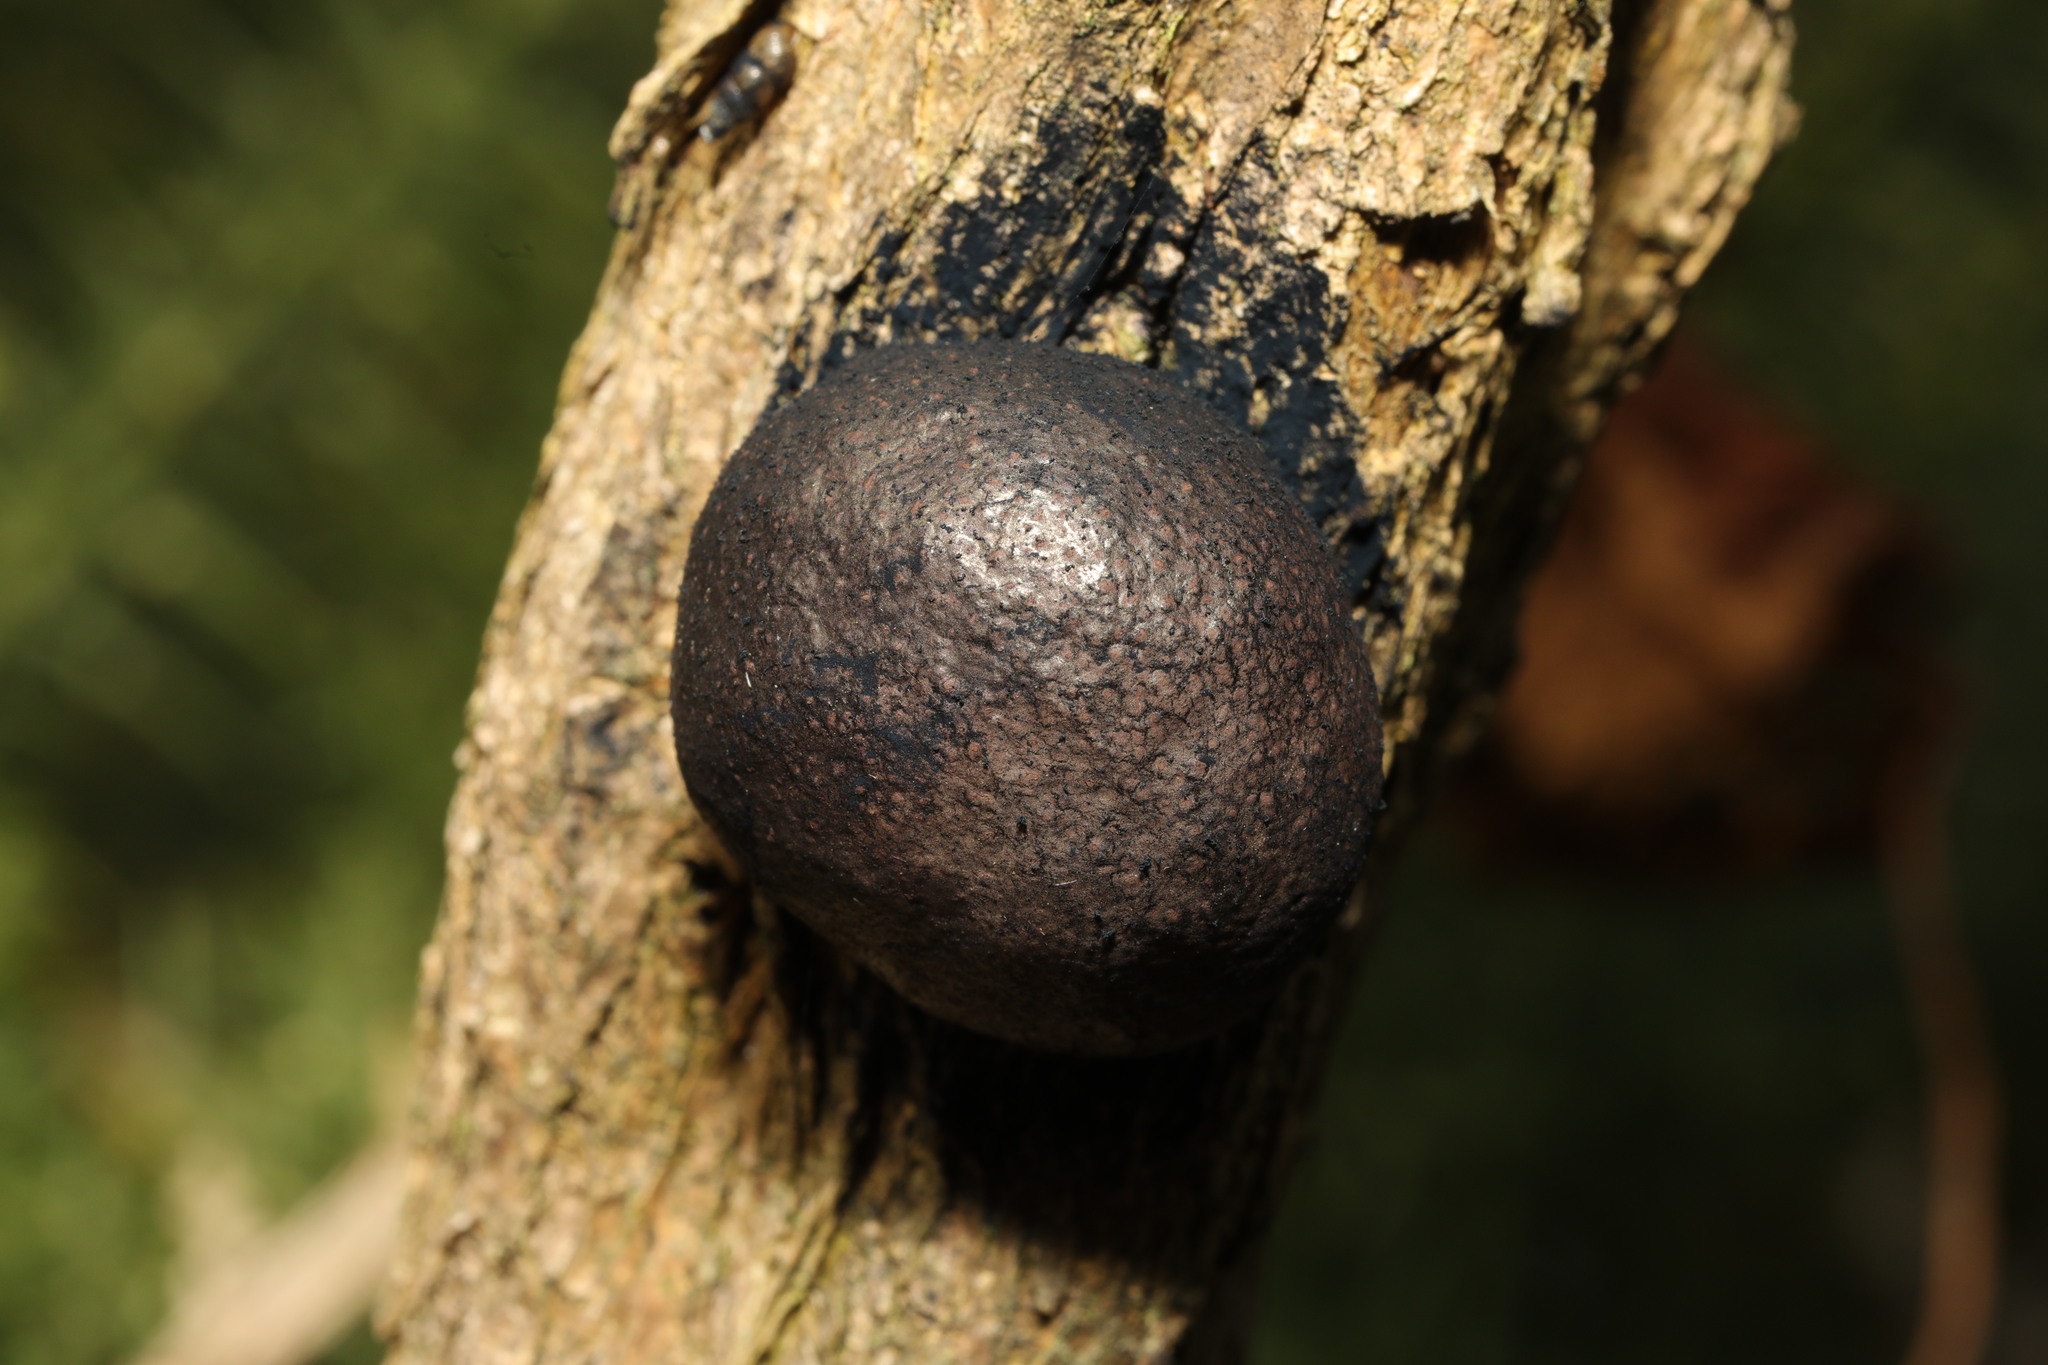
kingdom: Fungi
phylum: Ascomycota
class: Sordariomycetes
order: Xylariales
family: Hypoxylaceae
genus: Daldinia
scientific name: Daldinia concentrica
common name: Cramp balls
